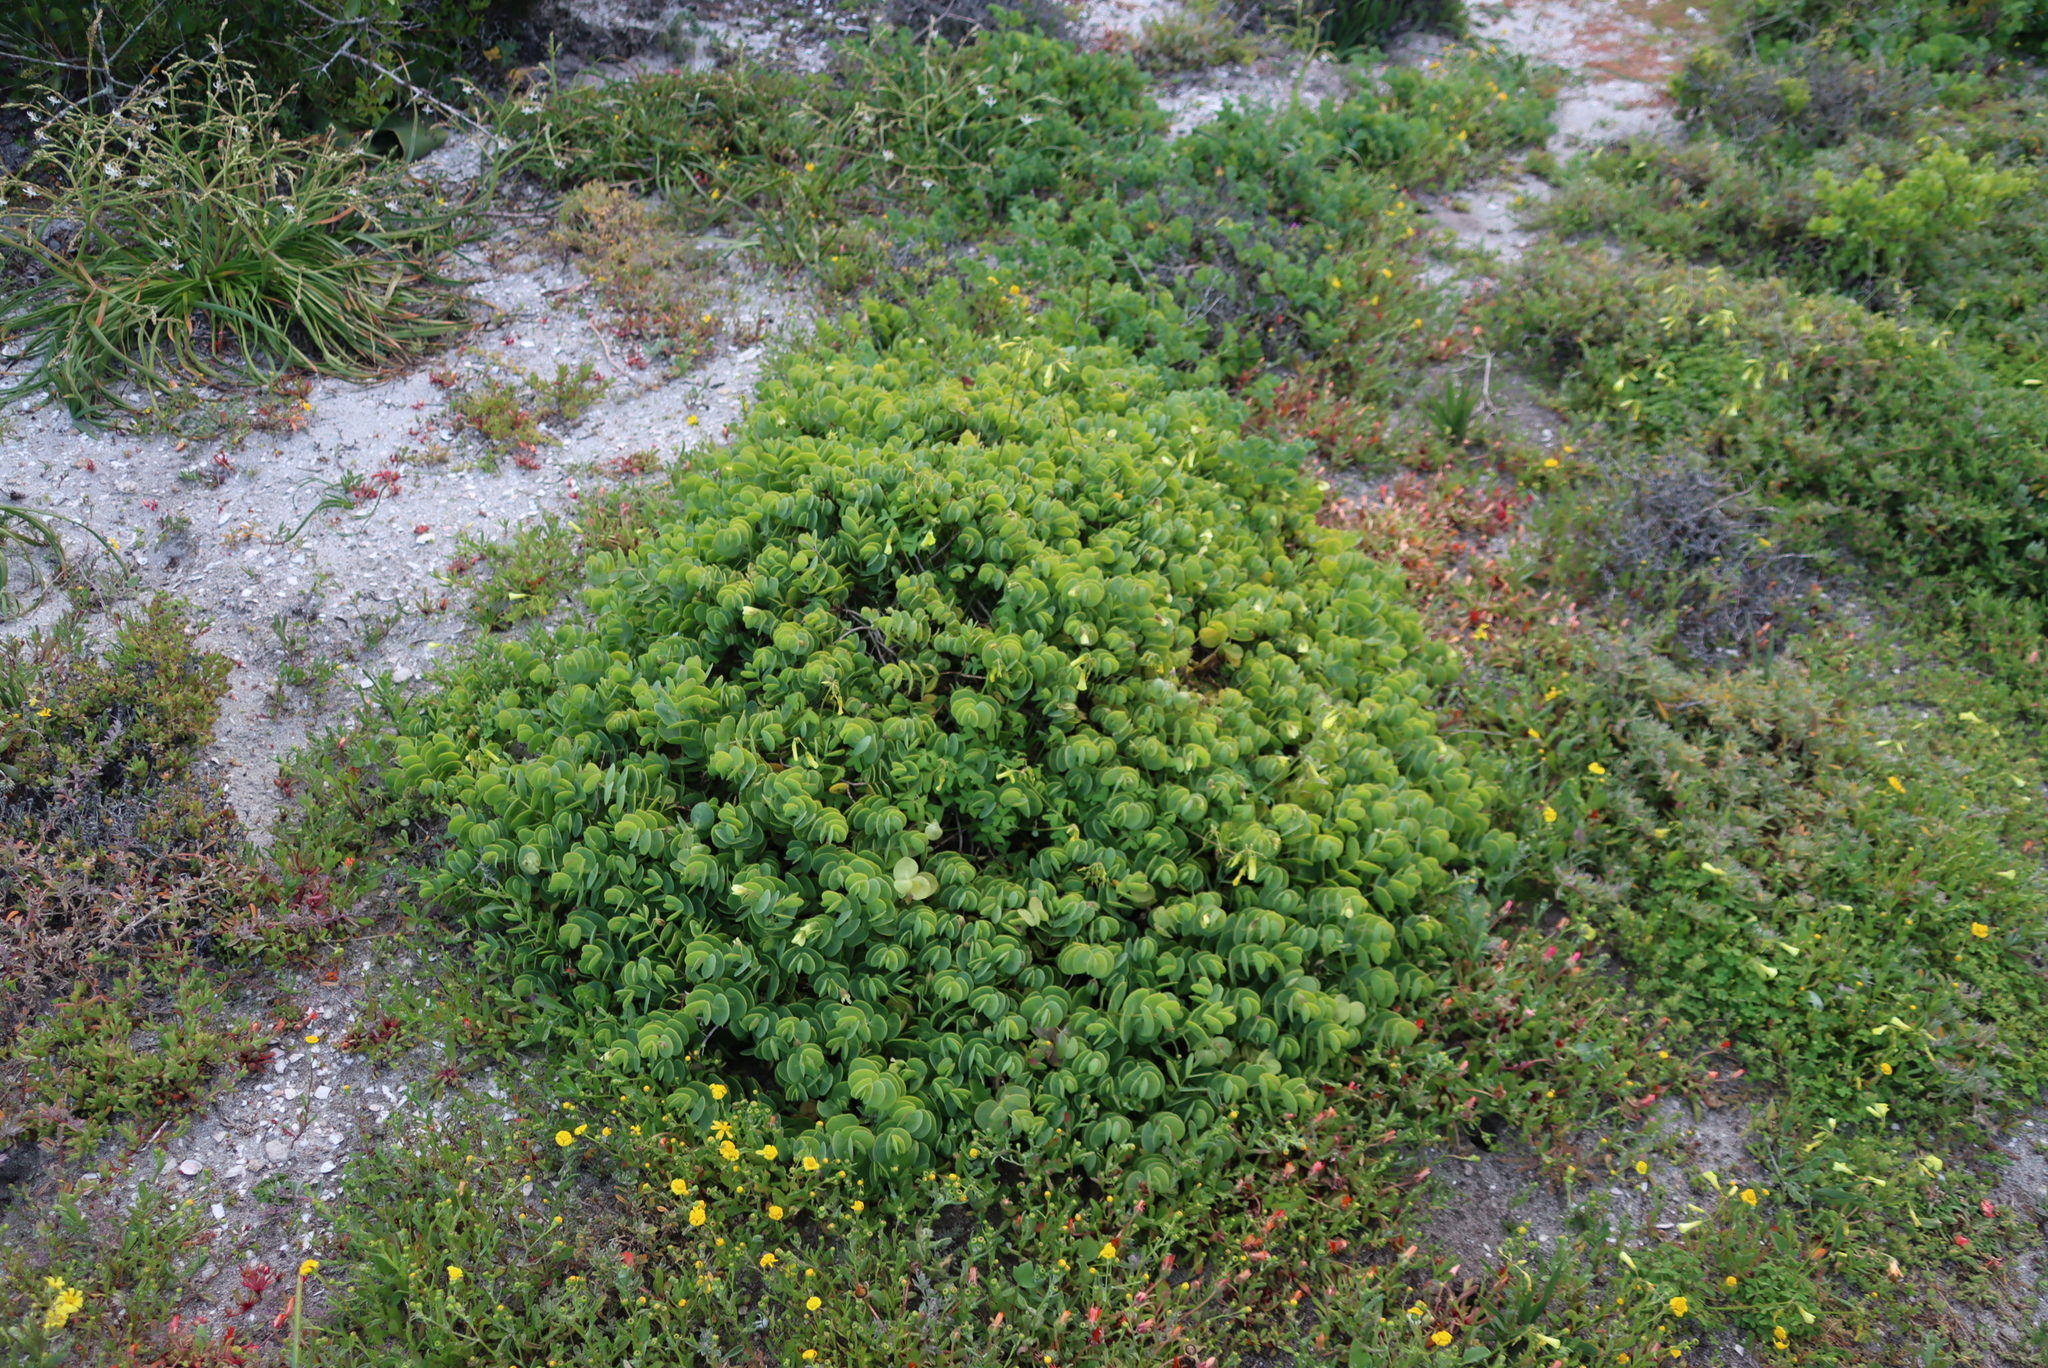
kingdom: Plantae
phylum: Tracheophyta
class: Magnoliopsida
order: Zygophyllales
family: Zygophyllaceae
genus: Roepera
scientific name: Roepera cordifolia
